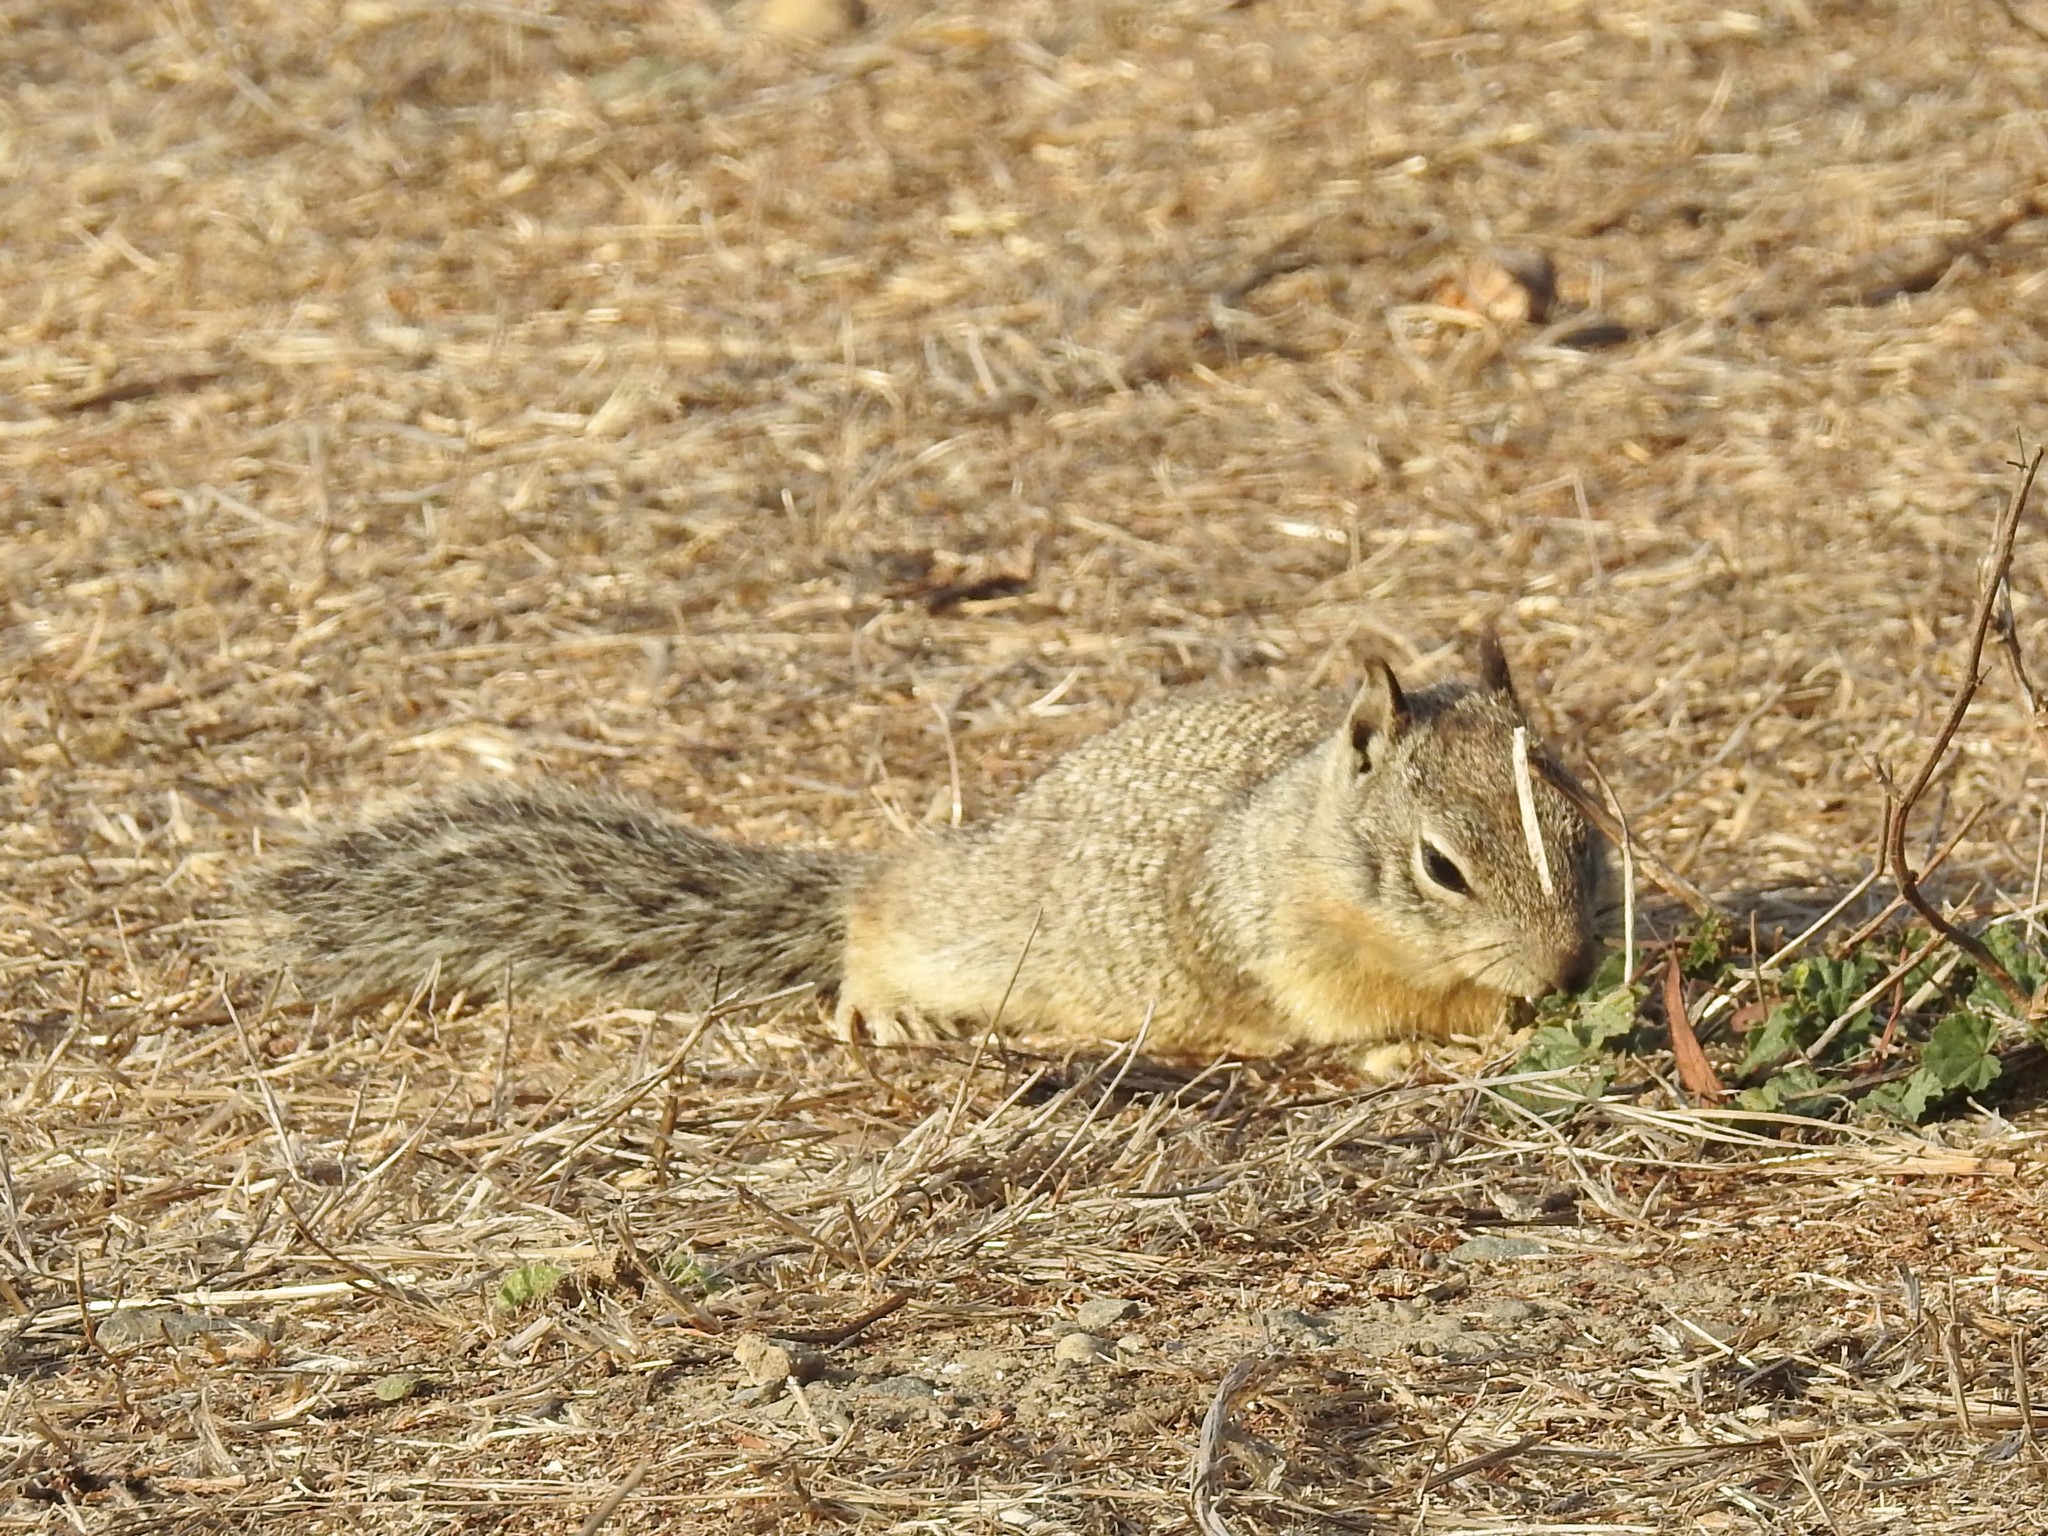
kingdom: Animalia
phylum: Chordata
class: Mammalia
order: Rodentia
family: Sciuridae
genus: Otospermophilus
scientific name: Otospermophilus beecheyi
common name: California ground squirrel
